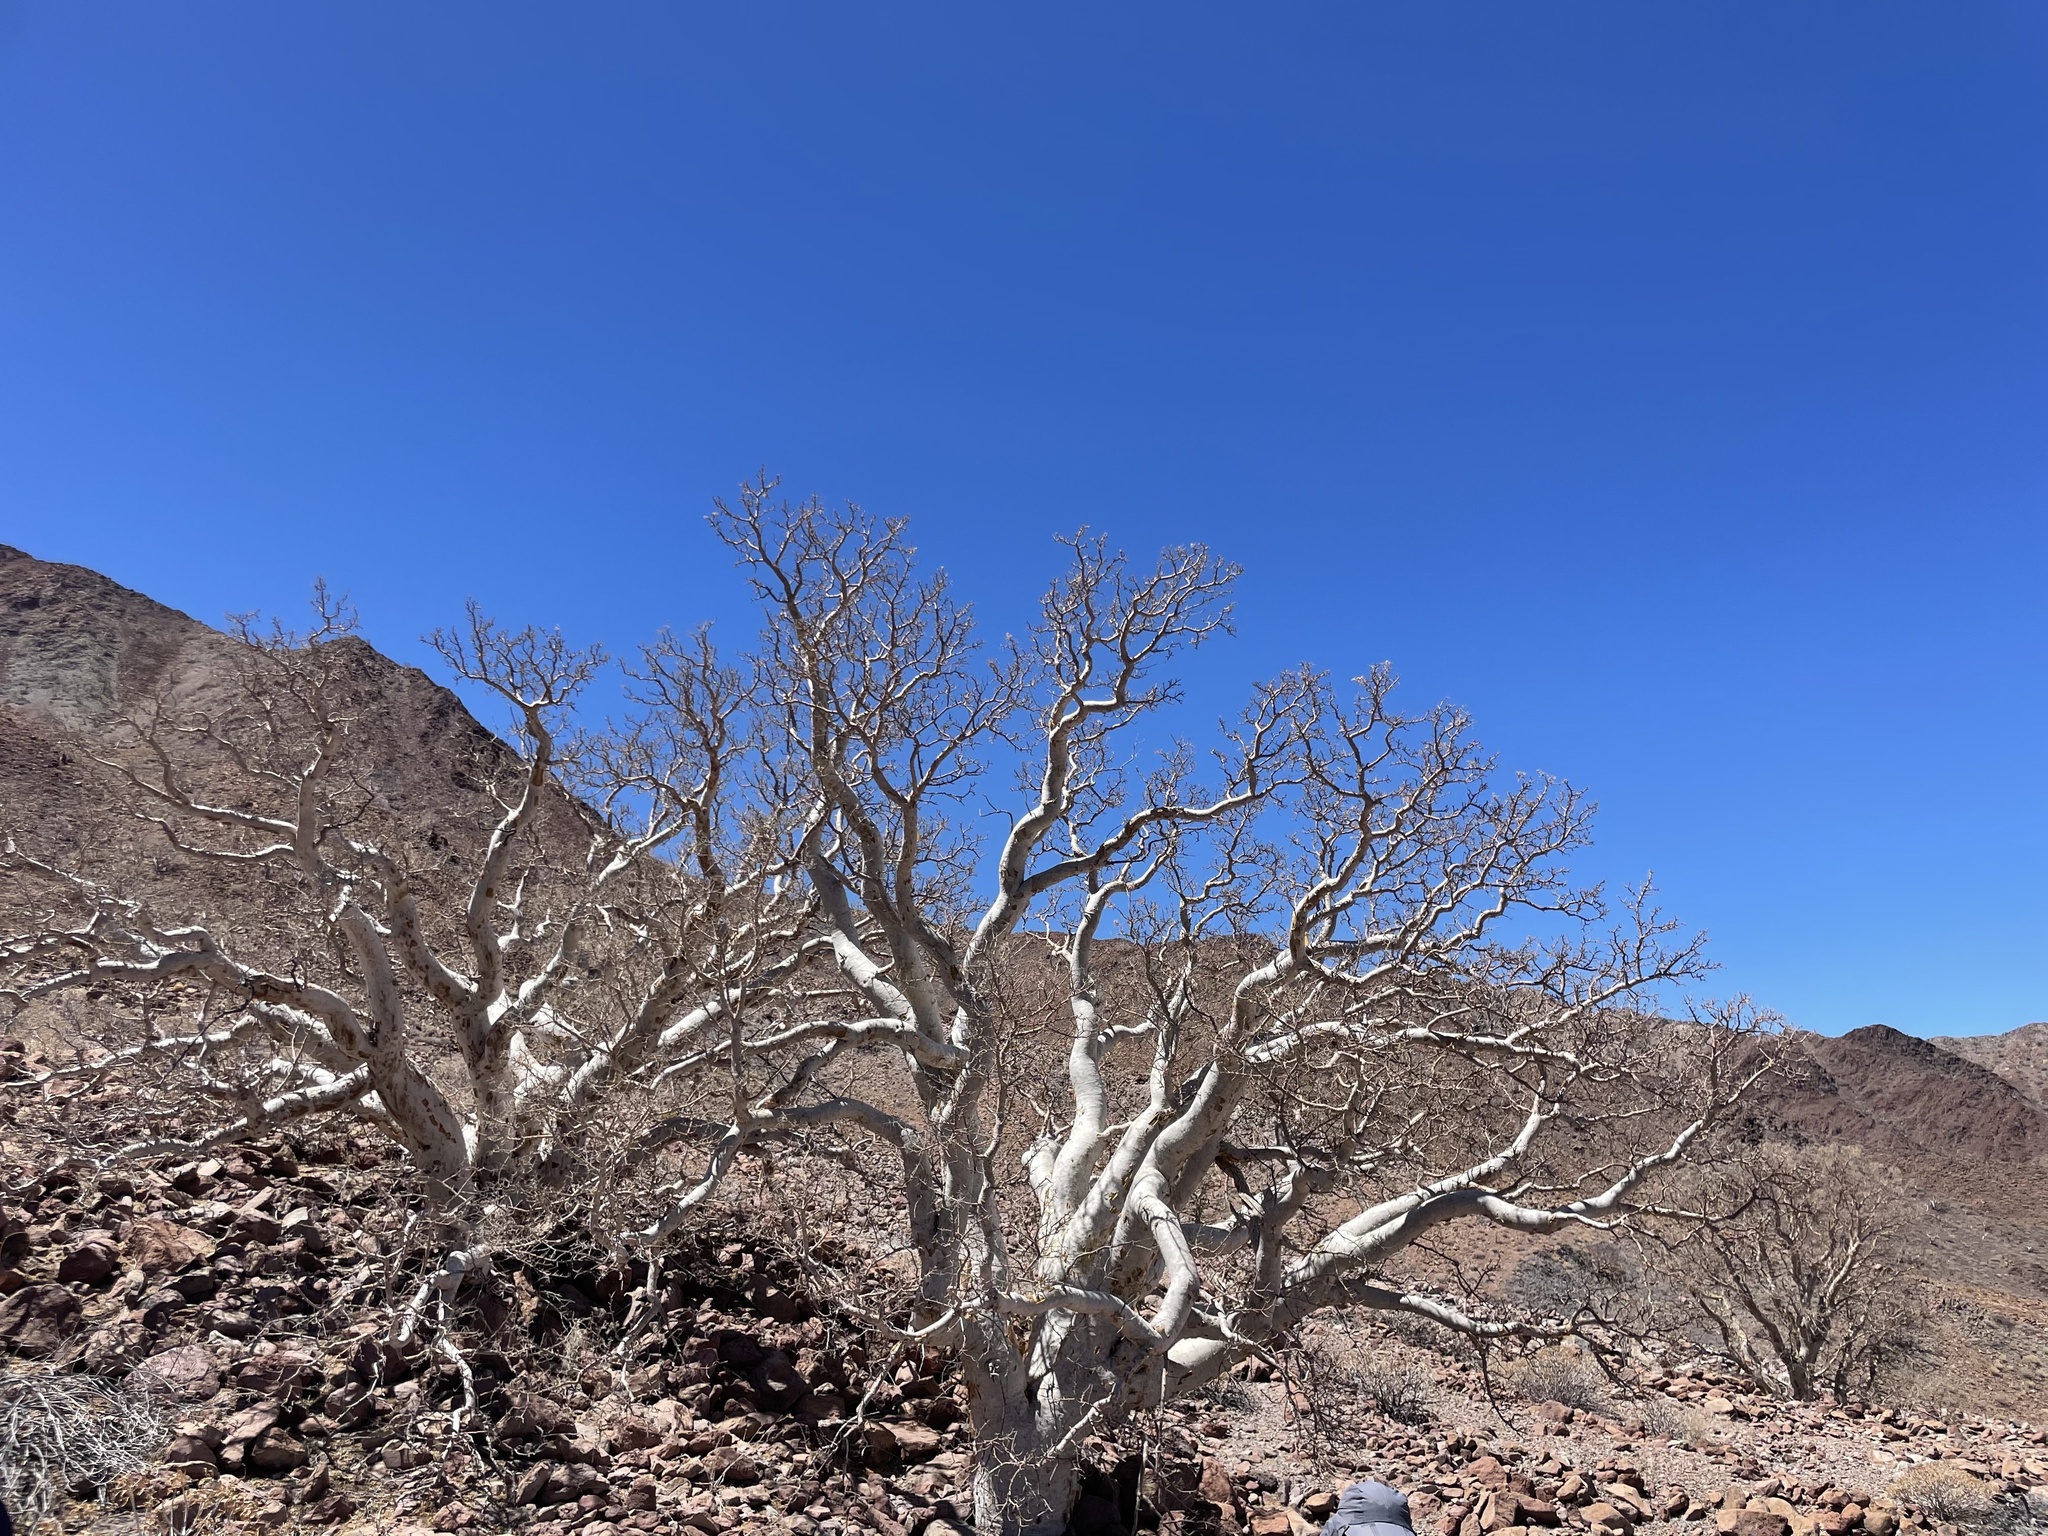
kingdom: Plantae
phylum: Tracheophyta
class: Magnoliopsida
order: Sapindales
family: Anacardiaceae
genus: Pachycormus
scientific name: Pachycormus discolor
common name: Succulent elephant trees
